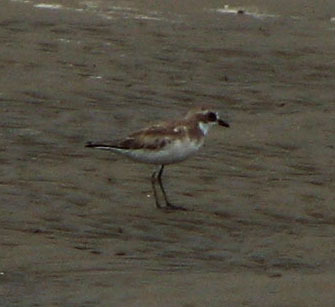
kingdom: Animalia
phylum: Chordata
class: Aves
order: Charadriiformes
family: Charadriidae
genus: Anarhynchus
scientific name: Anarhynchus
